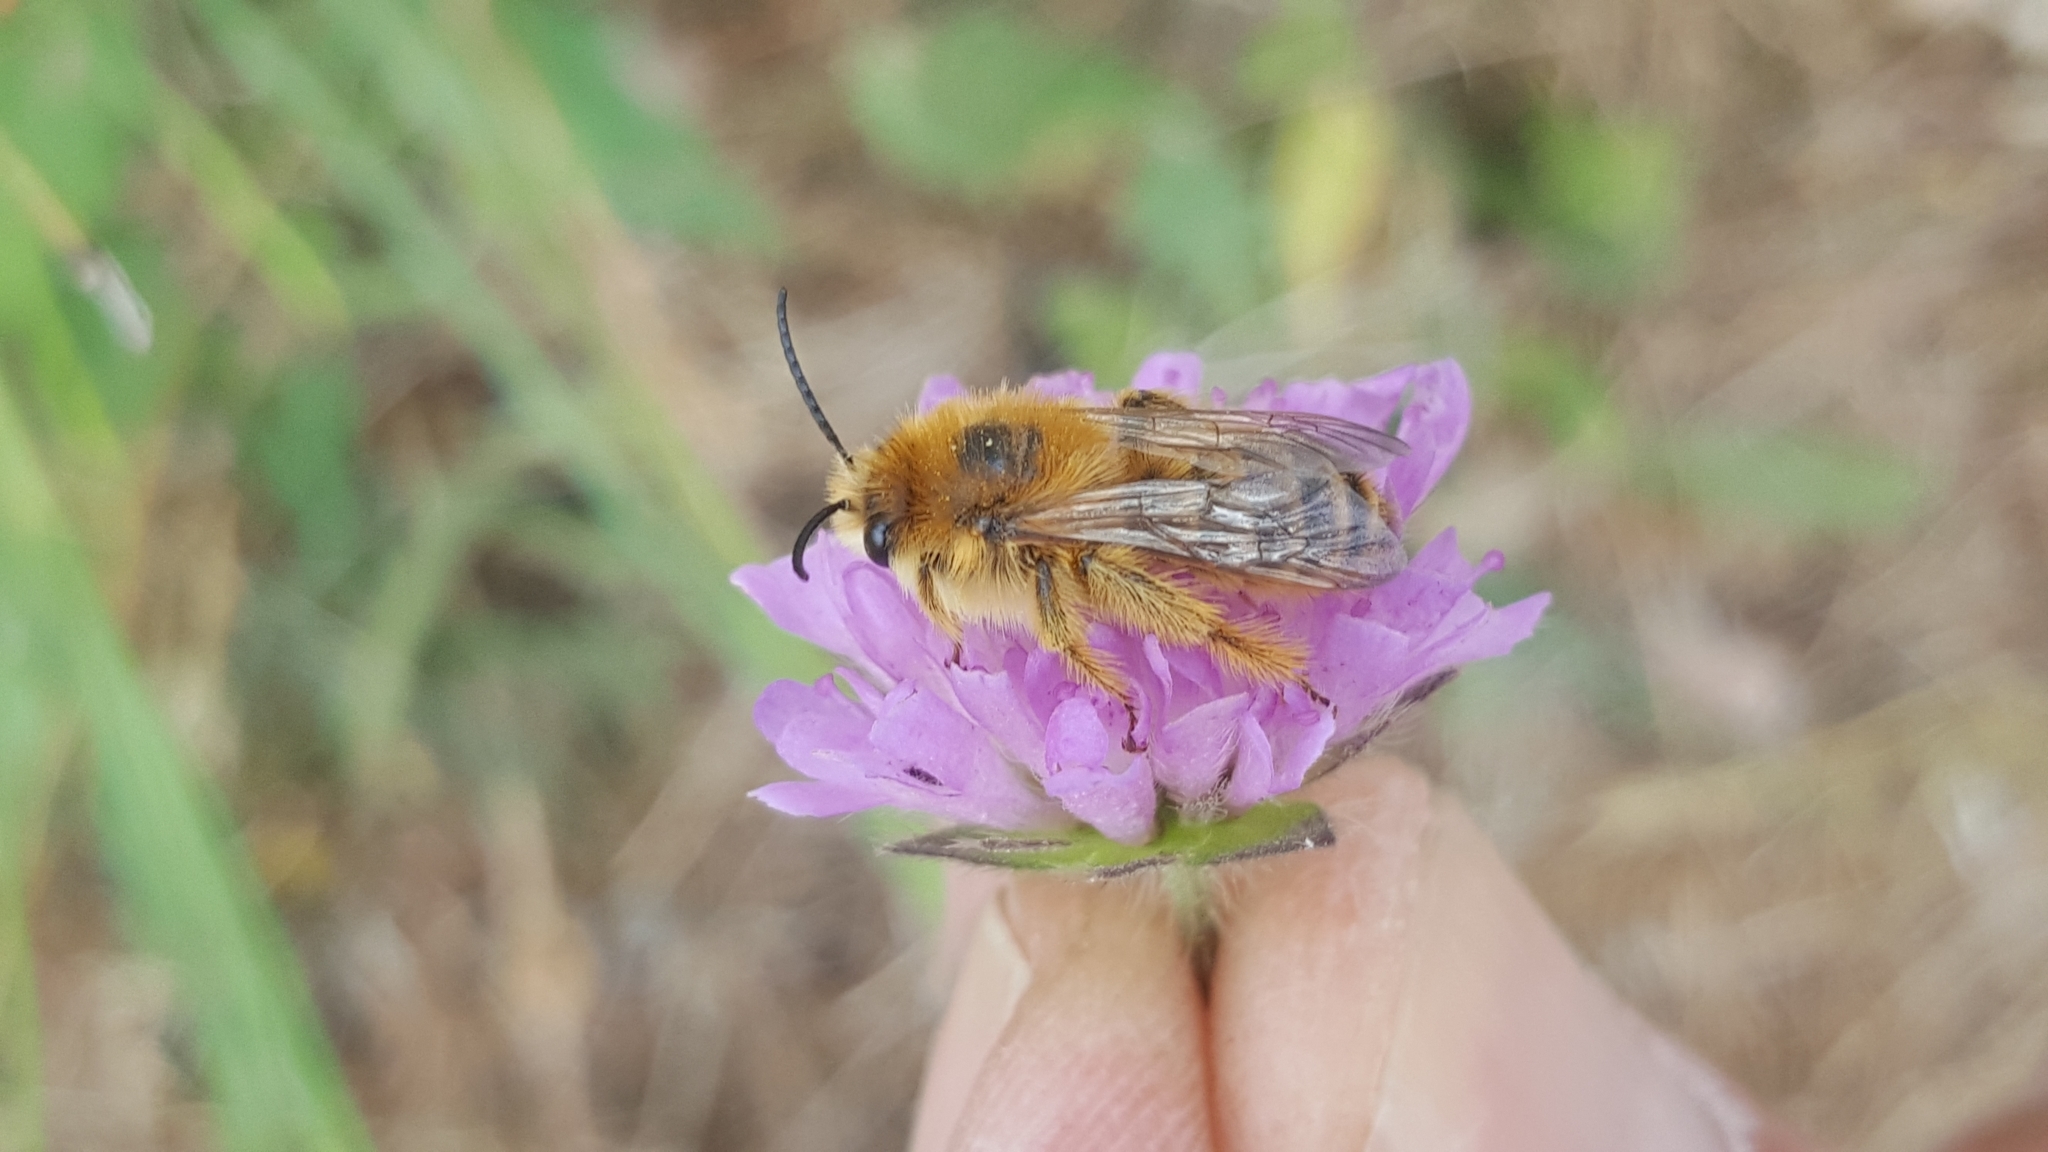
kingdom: Animalia
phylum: Arthropoda
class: Insecta
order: Hymenoptera
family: Melittidae
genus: Dasypoda
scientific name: Dasypoda hirtipes
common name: Pantaloon bee
